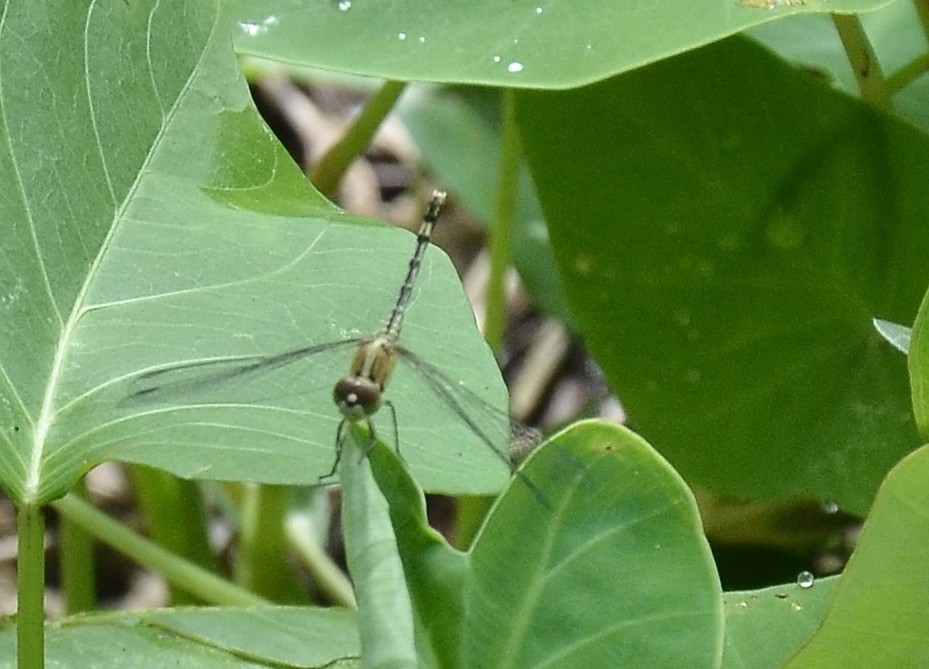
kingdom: Animalia
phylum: Arthropoda
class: Insecta
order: Odonata
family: Libellulidae
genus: Diplacodes
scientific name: Diplacodes trivialis
